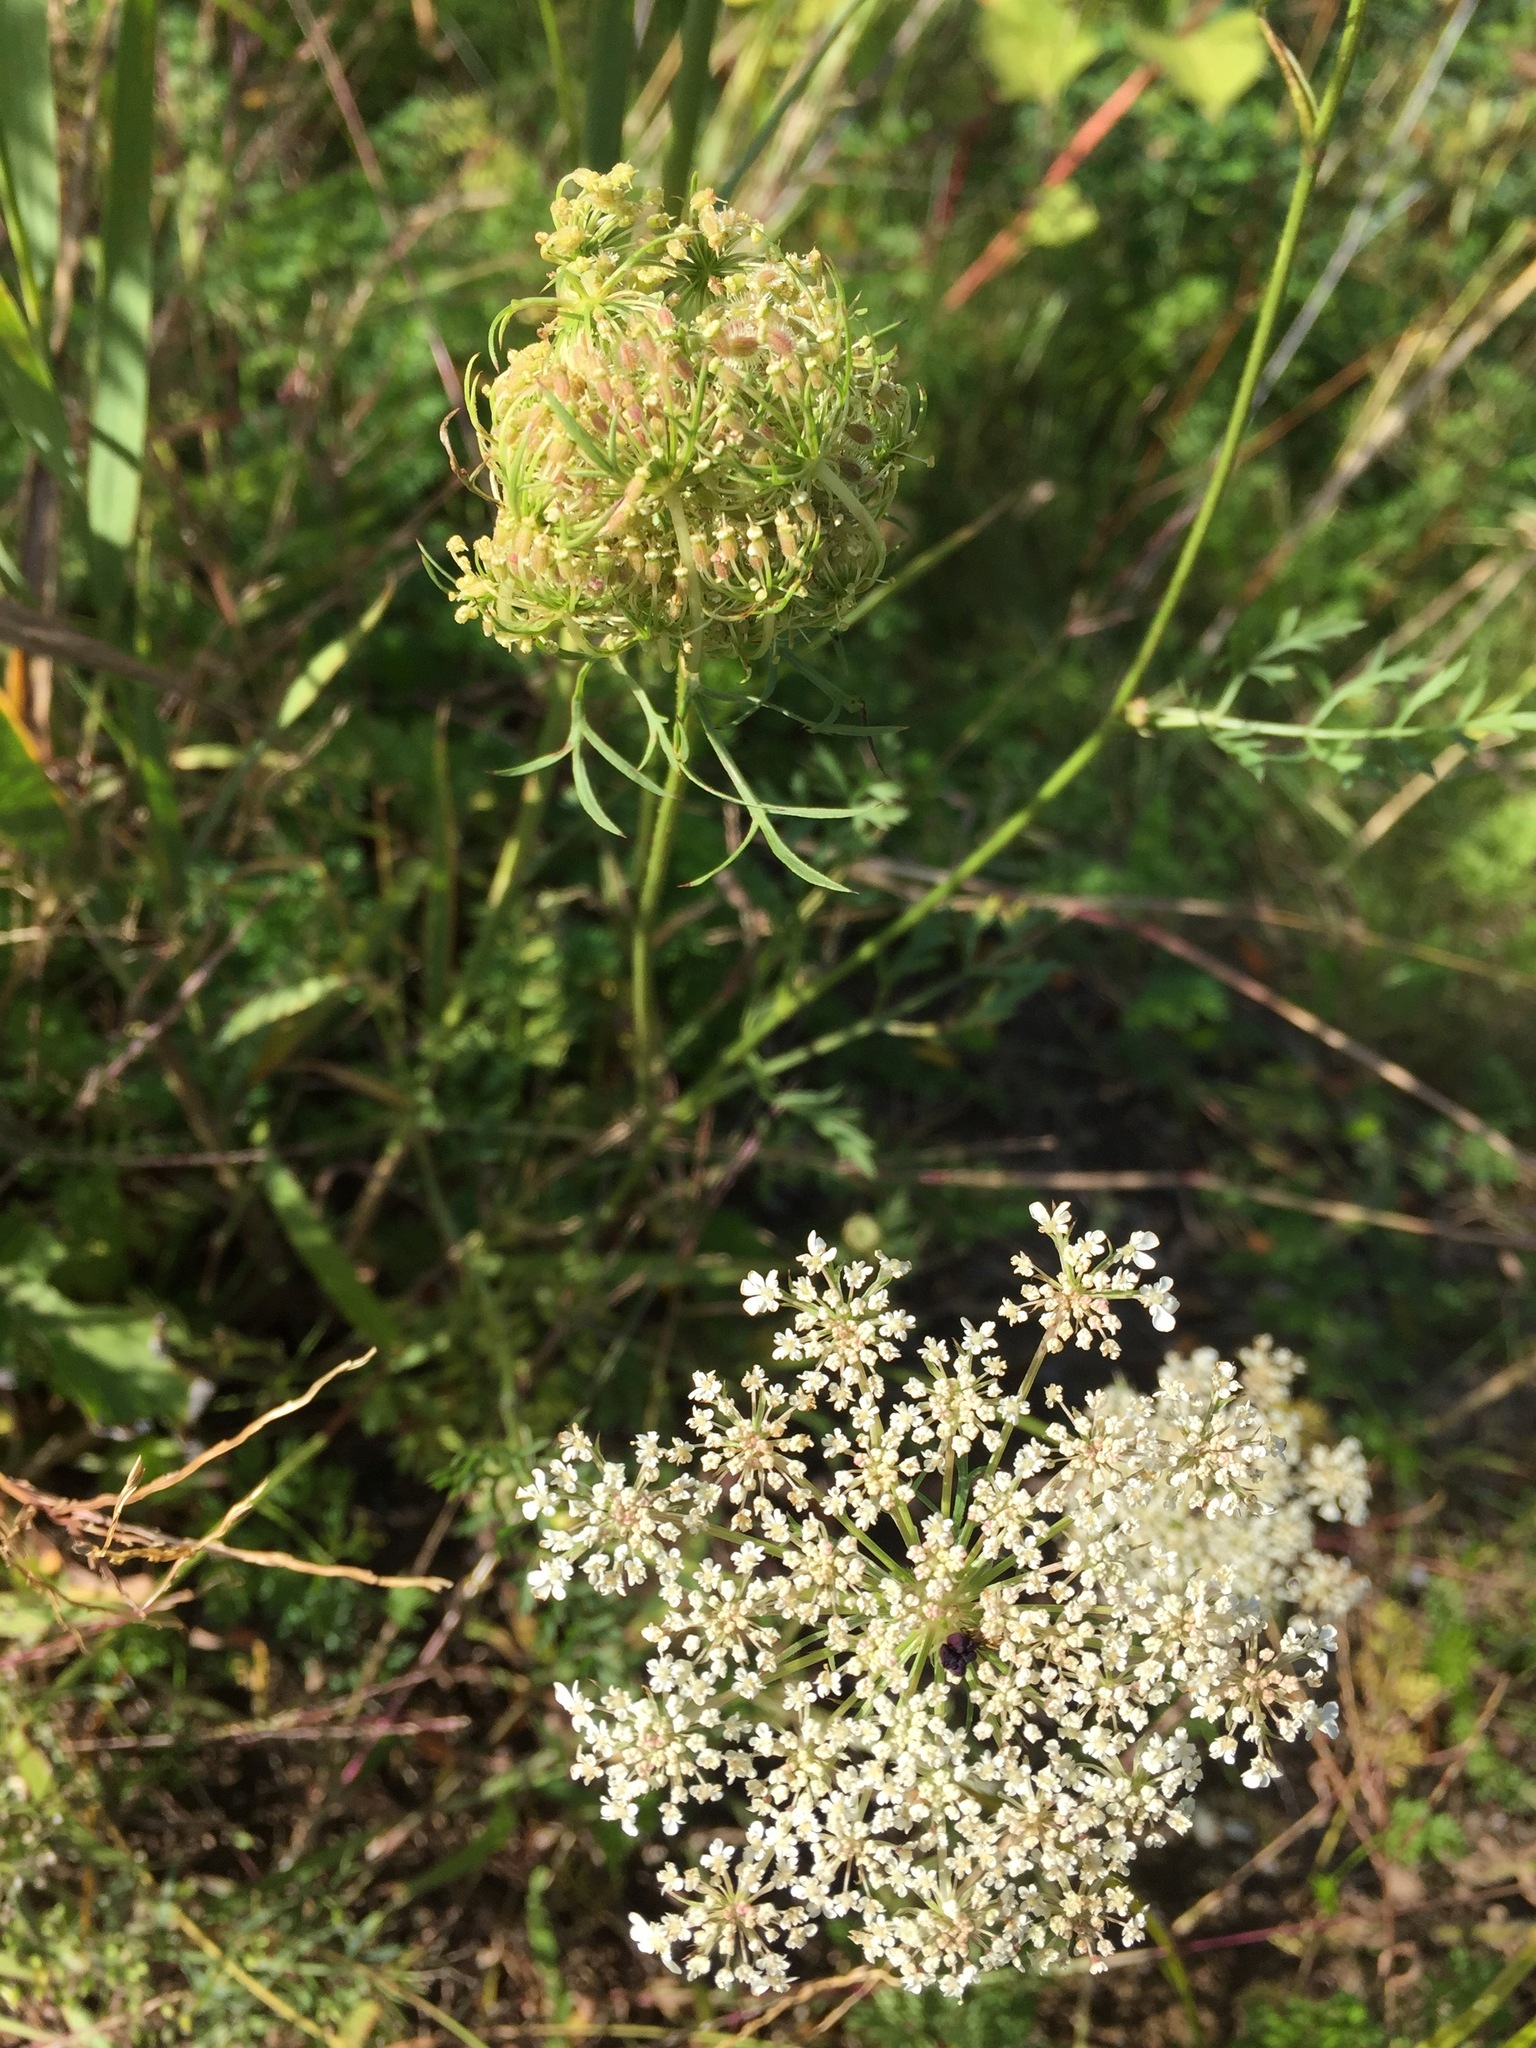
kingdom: Plantae
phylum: Tracheophyta
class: Magnoliopsida
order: Apiales
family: Apiaceae
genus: Daucus
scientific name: Daucus carota
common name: Wild carrot
